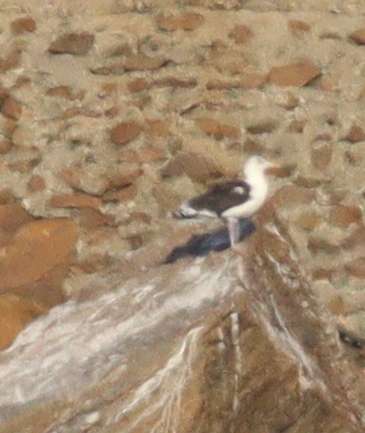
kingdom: Animalia
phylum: Chordata
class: Aves
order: Charadriiformes
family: Laridae
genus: Larus
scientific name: Larus marinus
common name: Great black-backed gull
